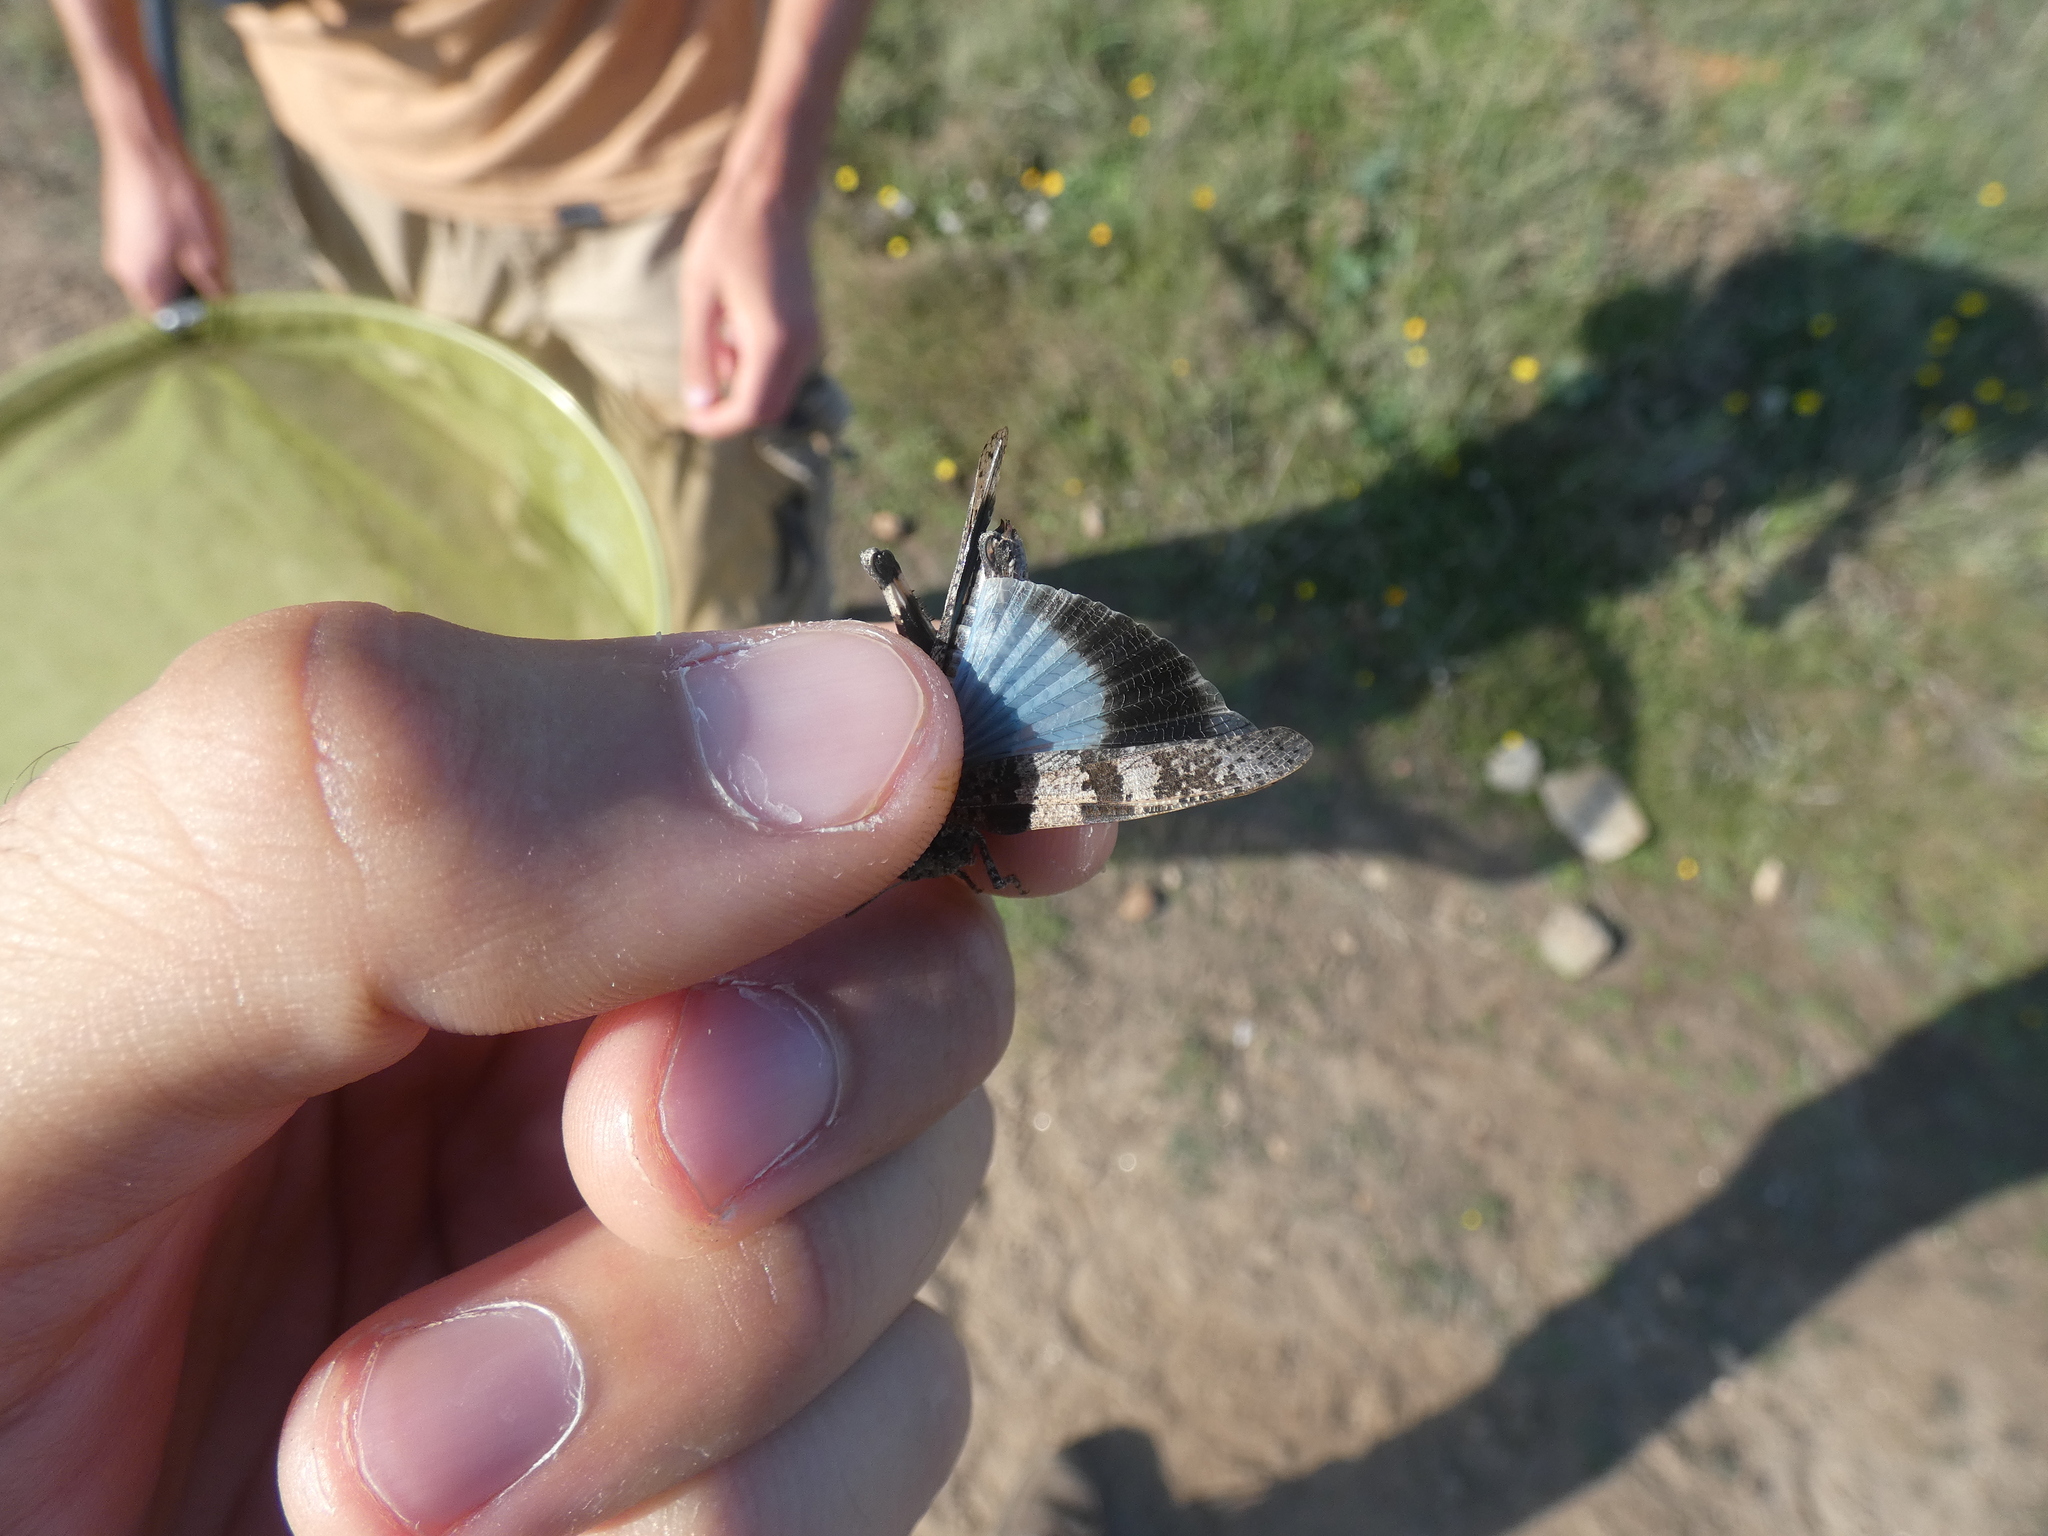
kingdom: Animalia
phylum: Arthropoda
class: Insecta
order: Orthoptera
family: Acrididae
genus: Oedipoda
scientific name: Oedipoda caerulescens
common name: Blue-winged grasshopper
